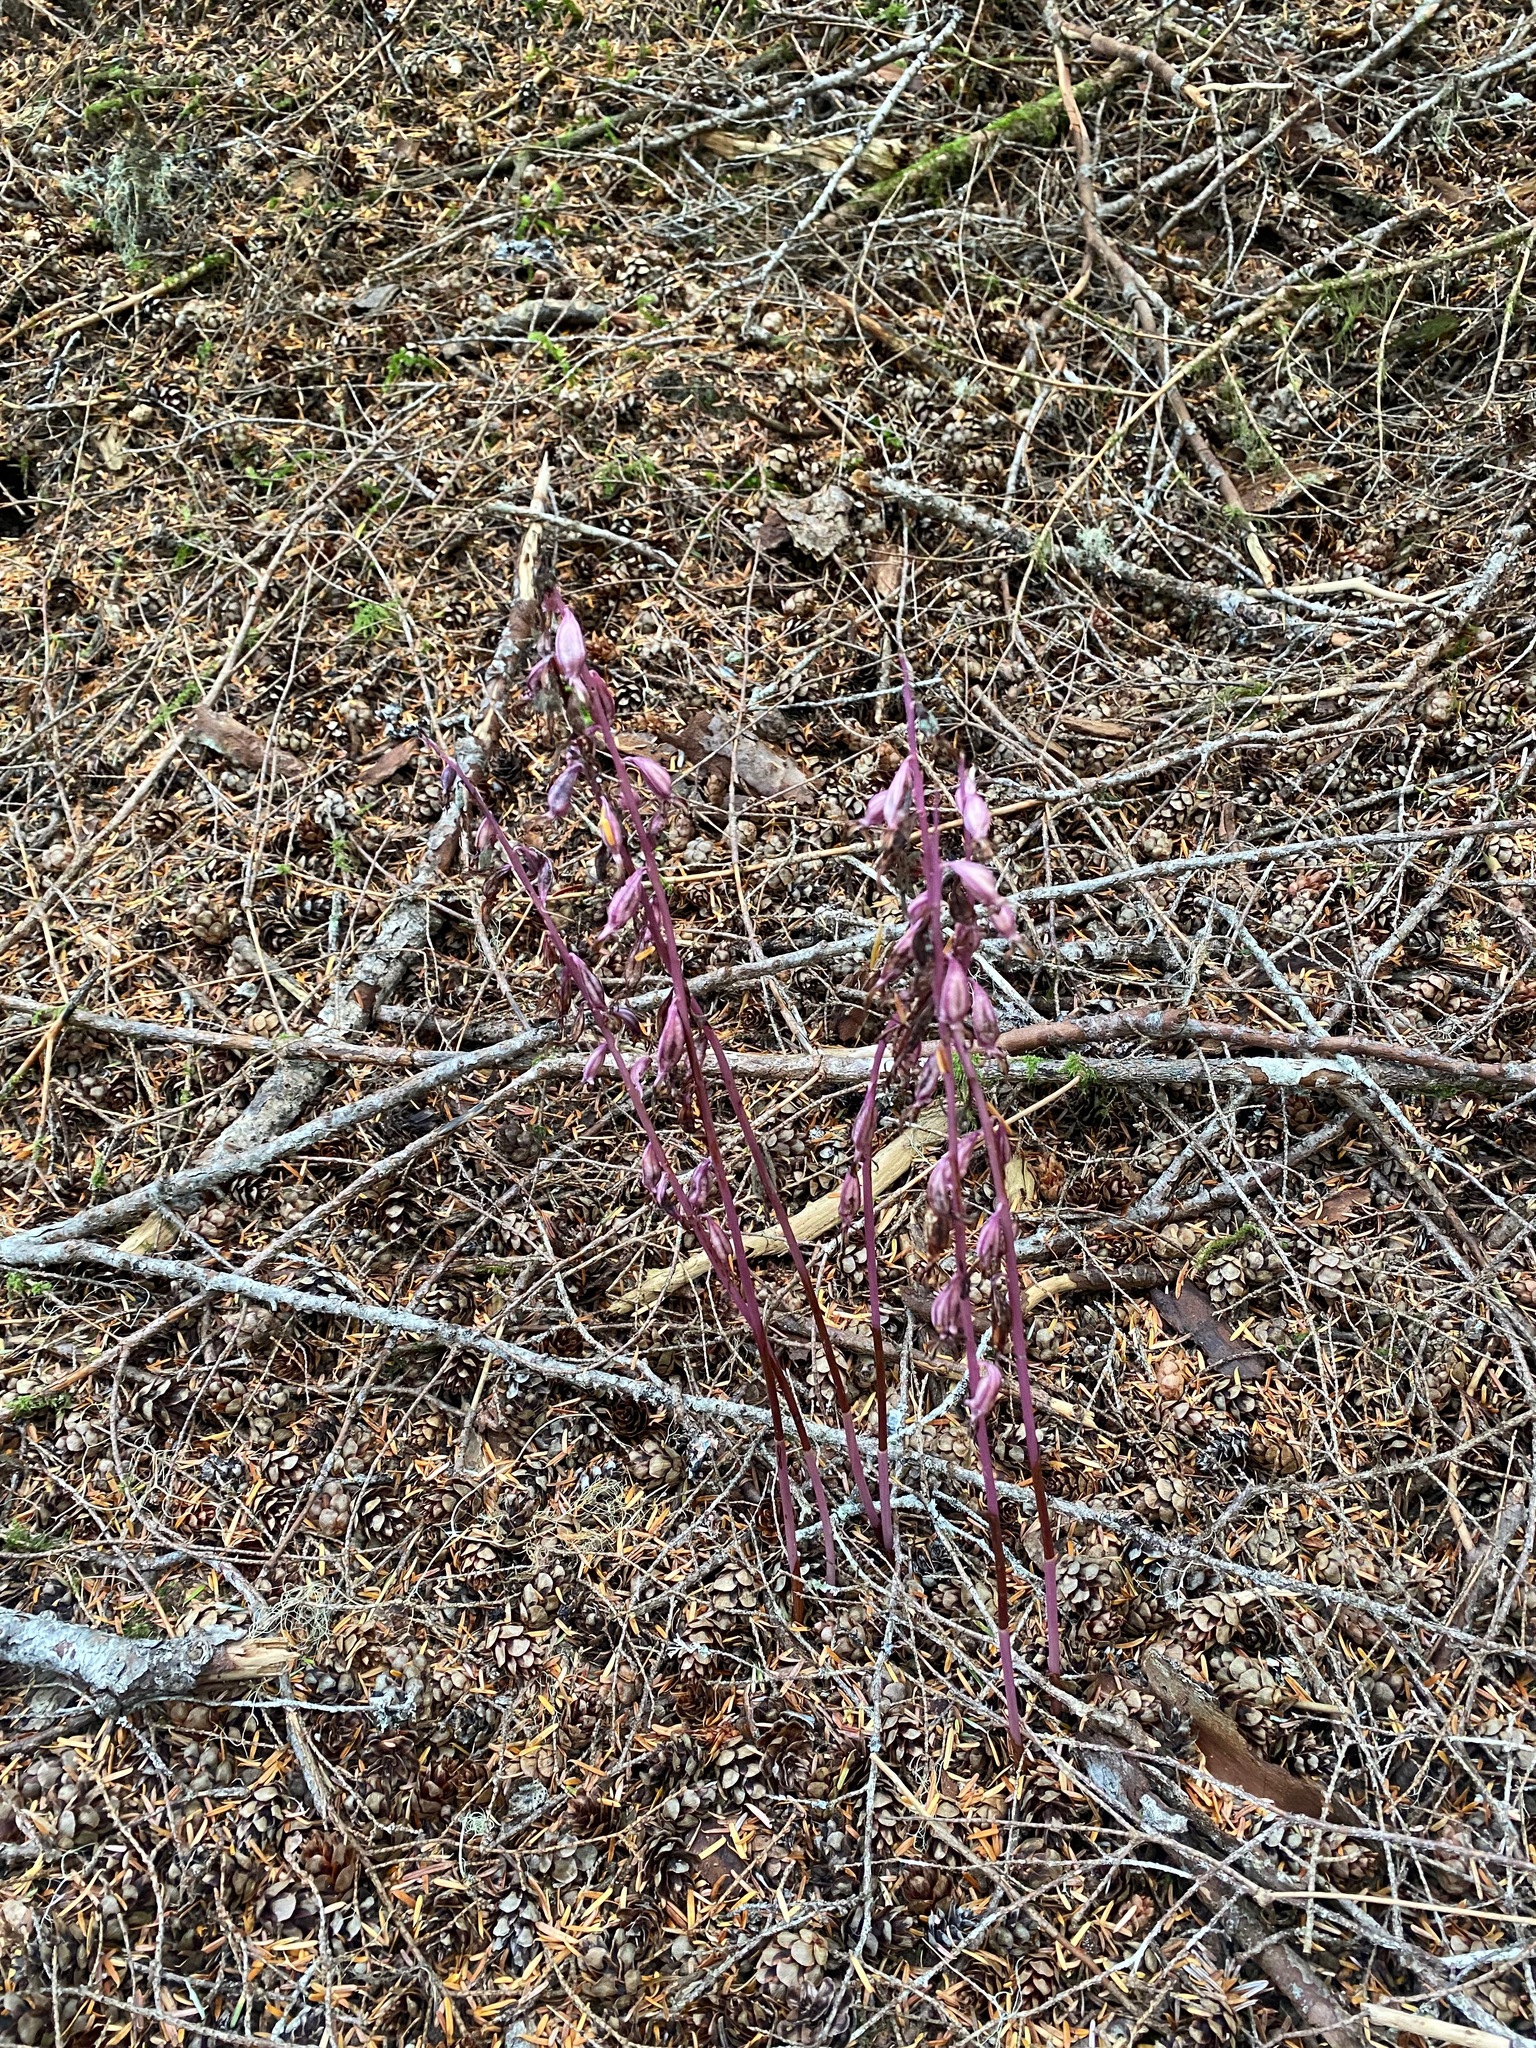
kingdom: Plantae
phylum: Tracheophyta
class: Liliopsida
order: Asparagales
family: Orchidaceae
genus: Corallorhiza
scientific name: Corallorhiza mertensiana
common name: Pacific coralroot
